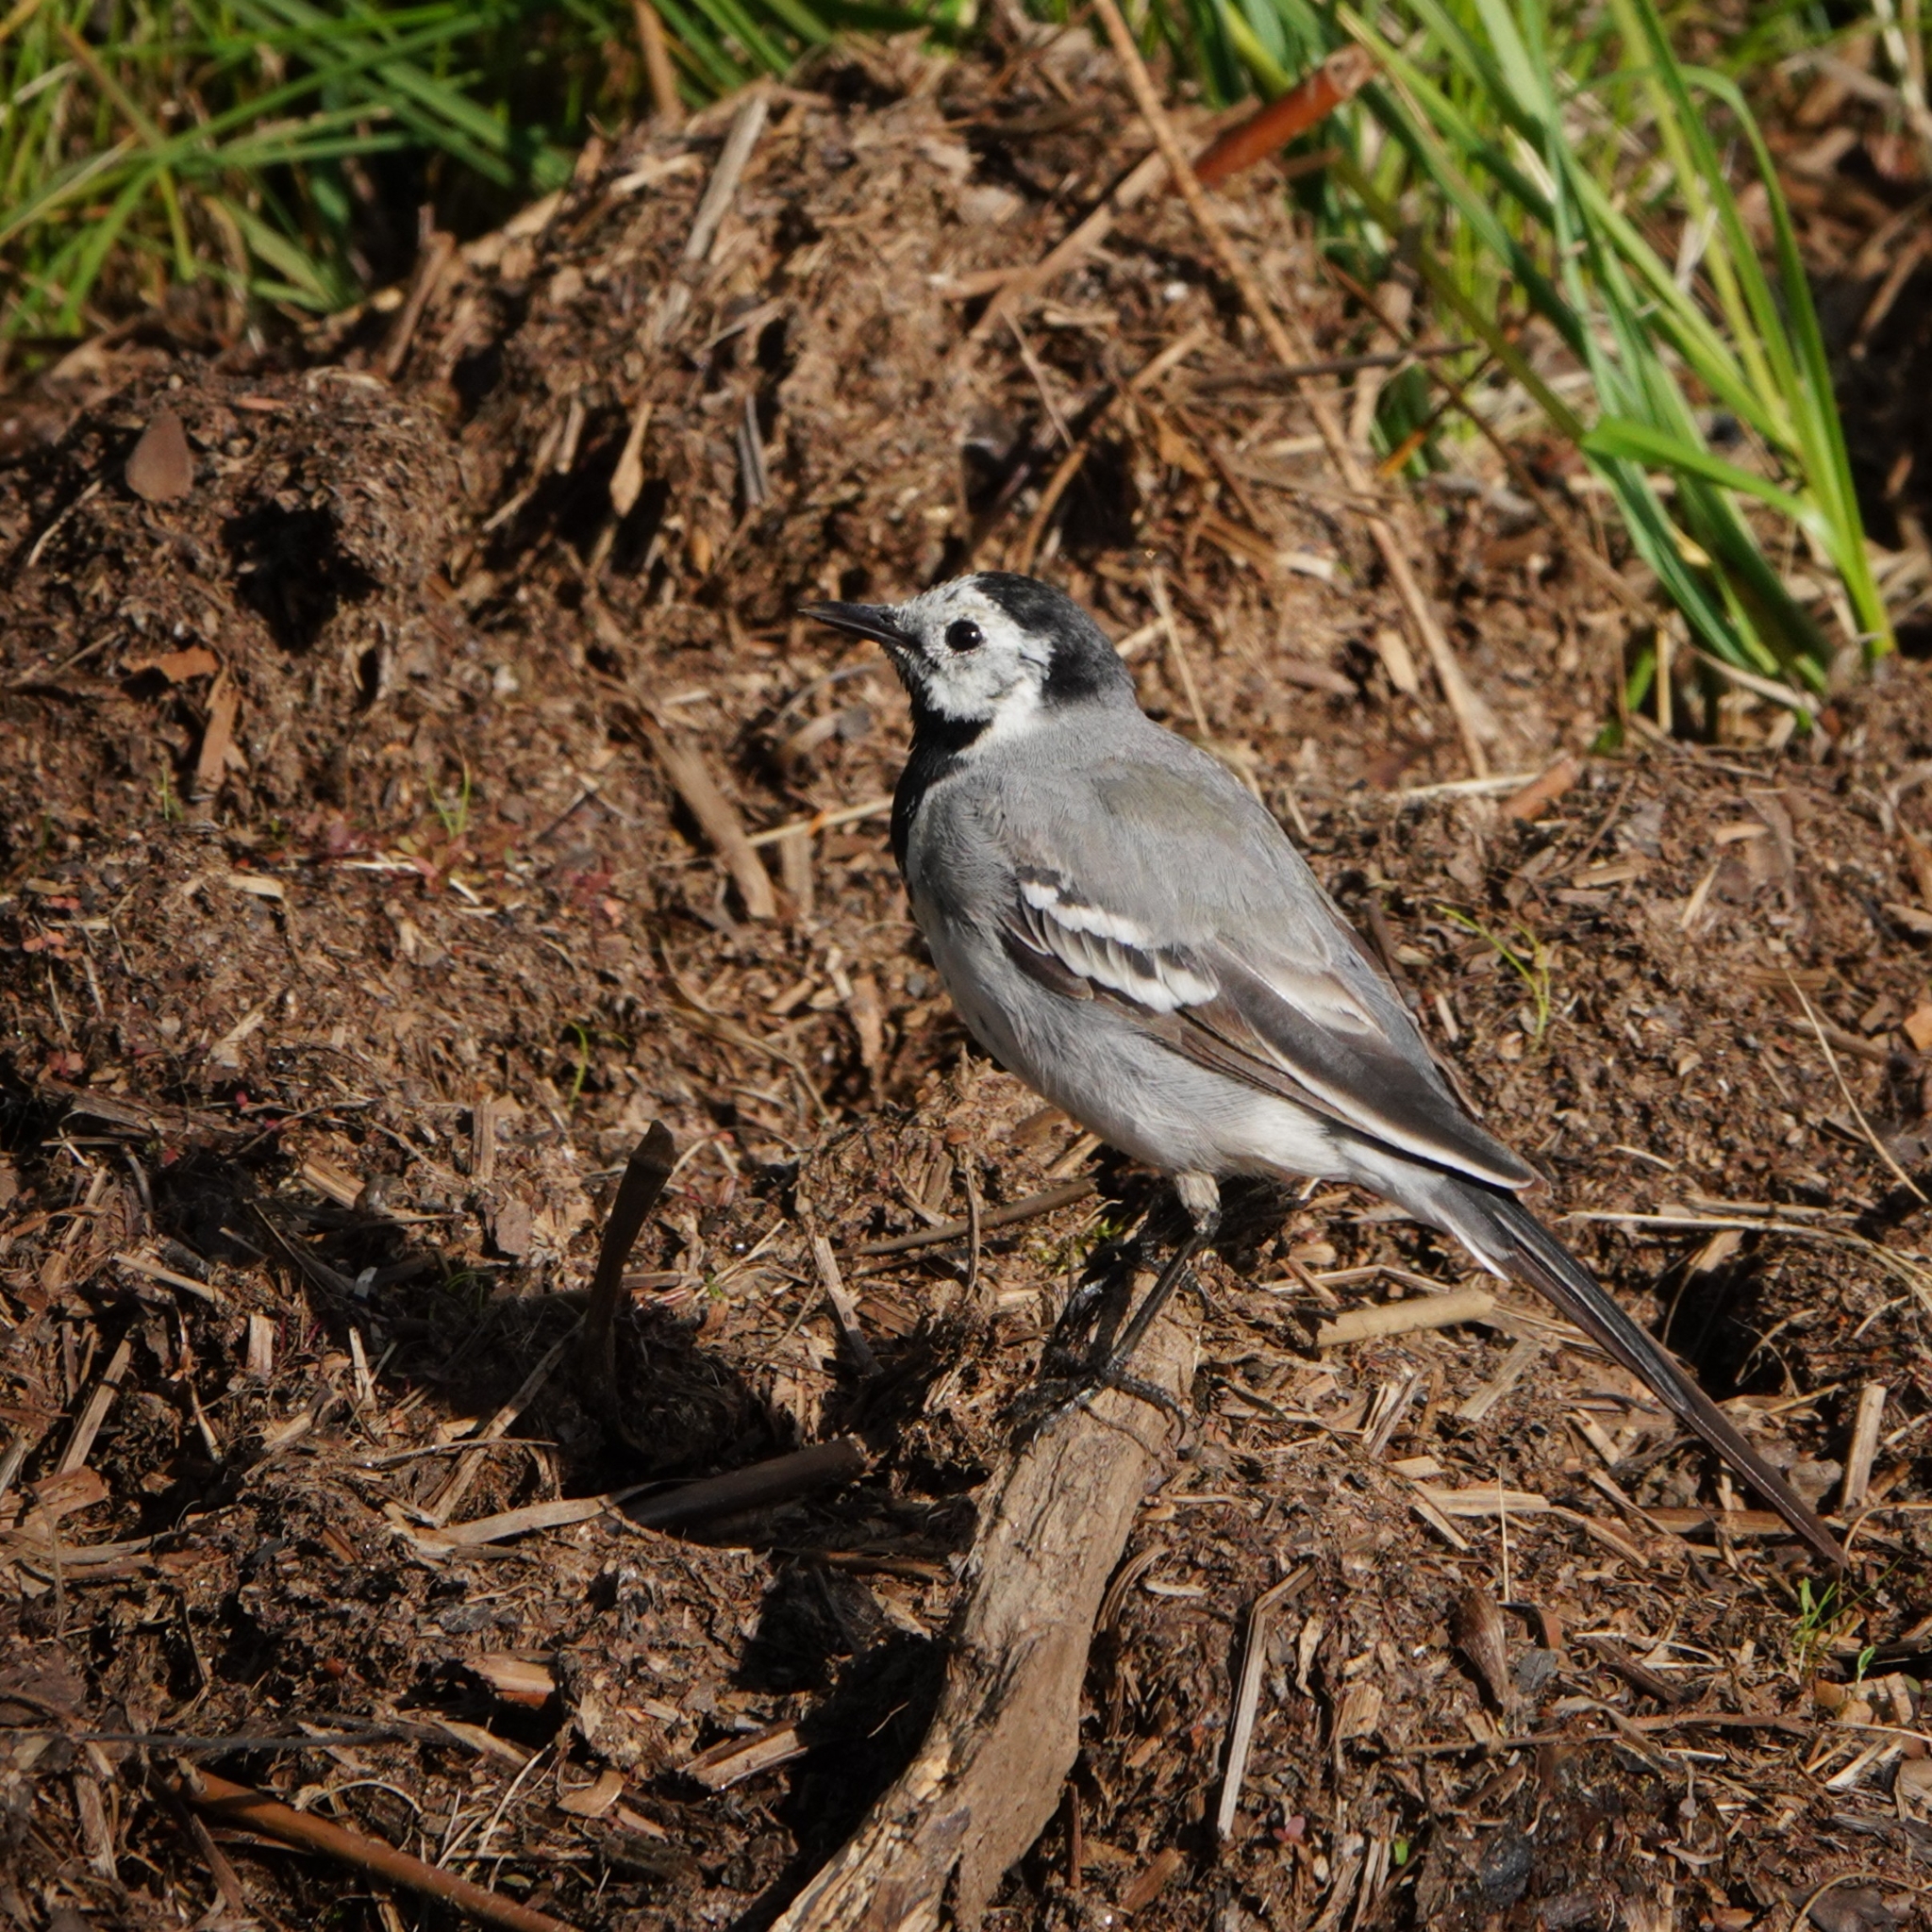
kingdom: Animalia
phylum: Chordata
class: Aves
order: Passeriformes
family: Motacillidae
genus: Motacilla
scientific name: Motacilla alba
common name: White wagtail
